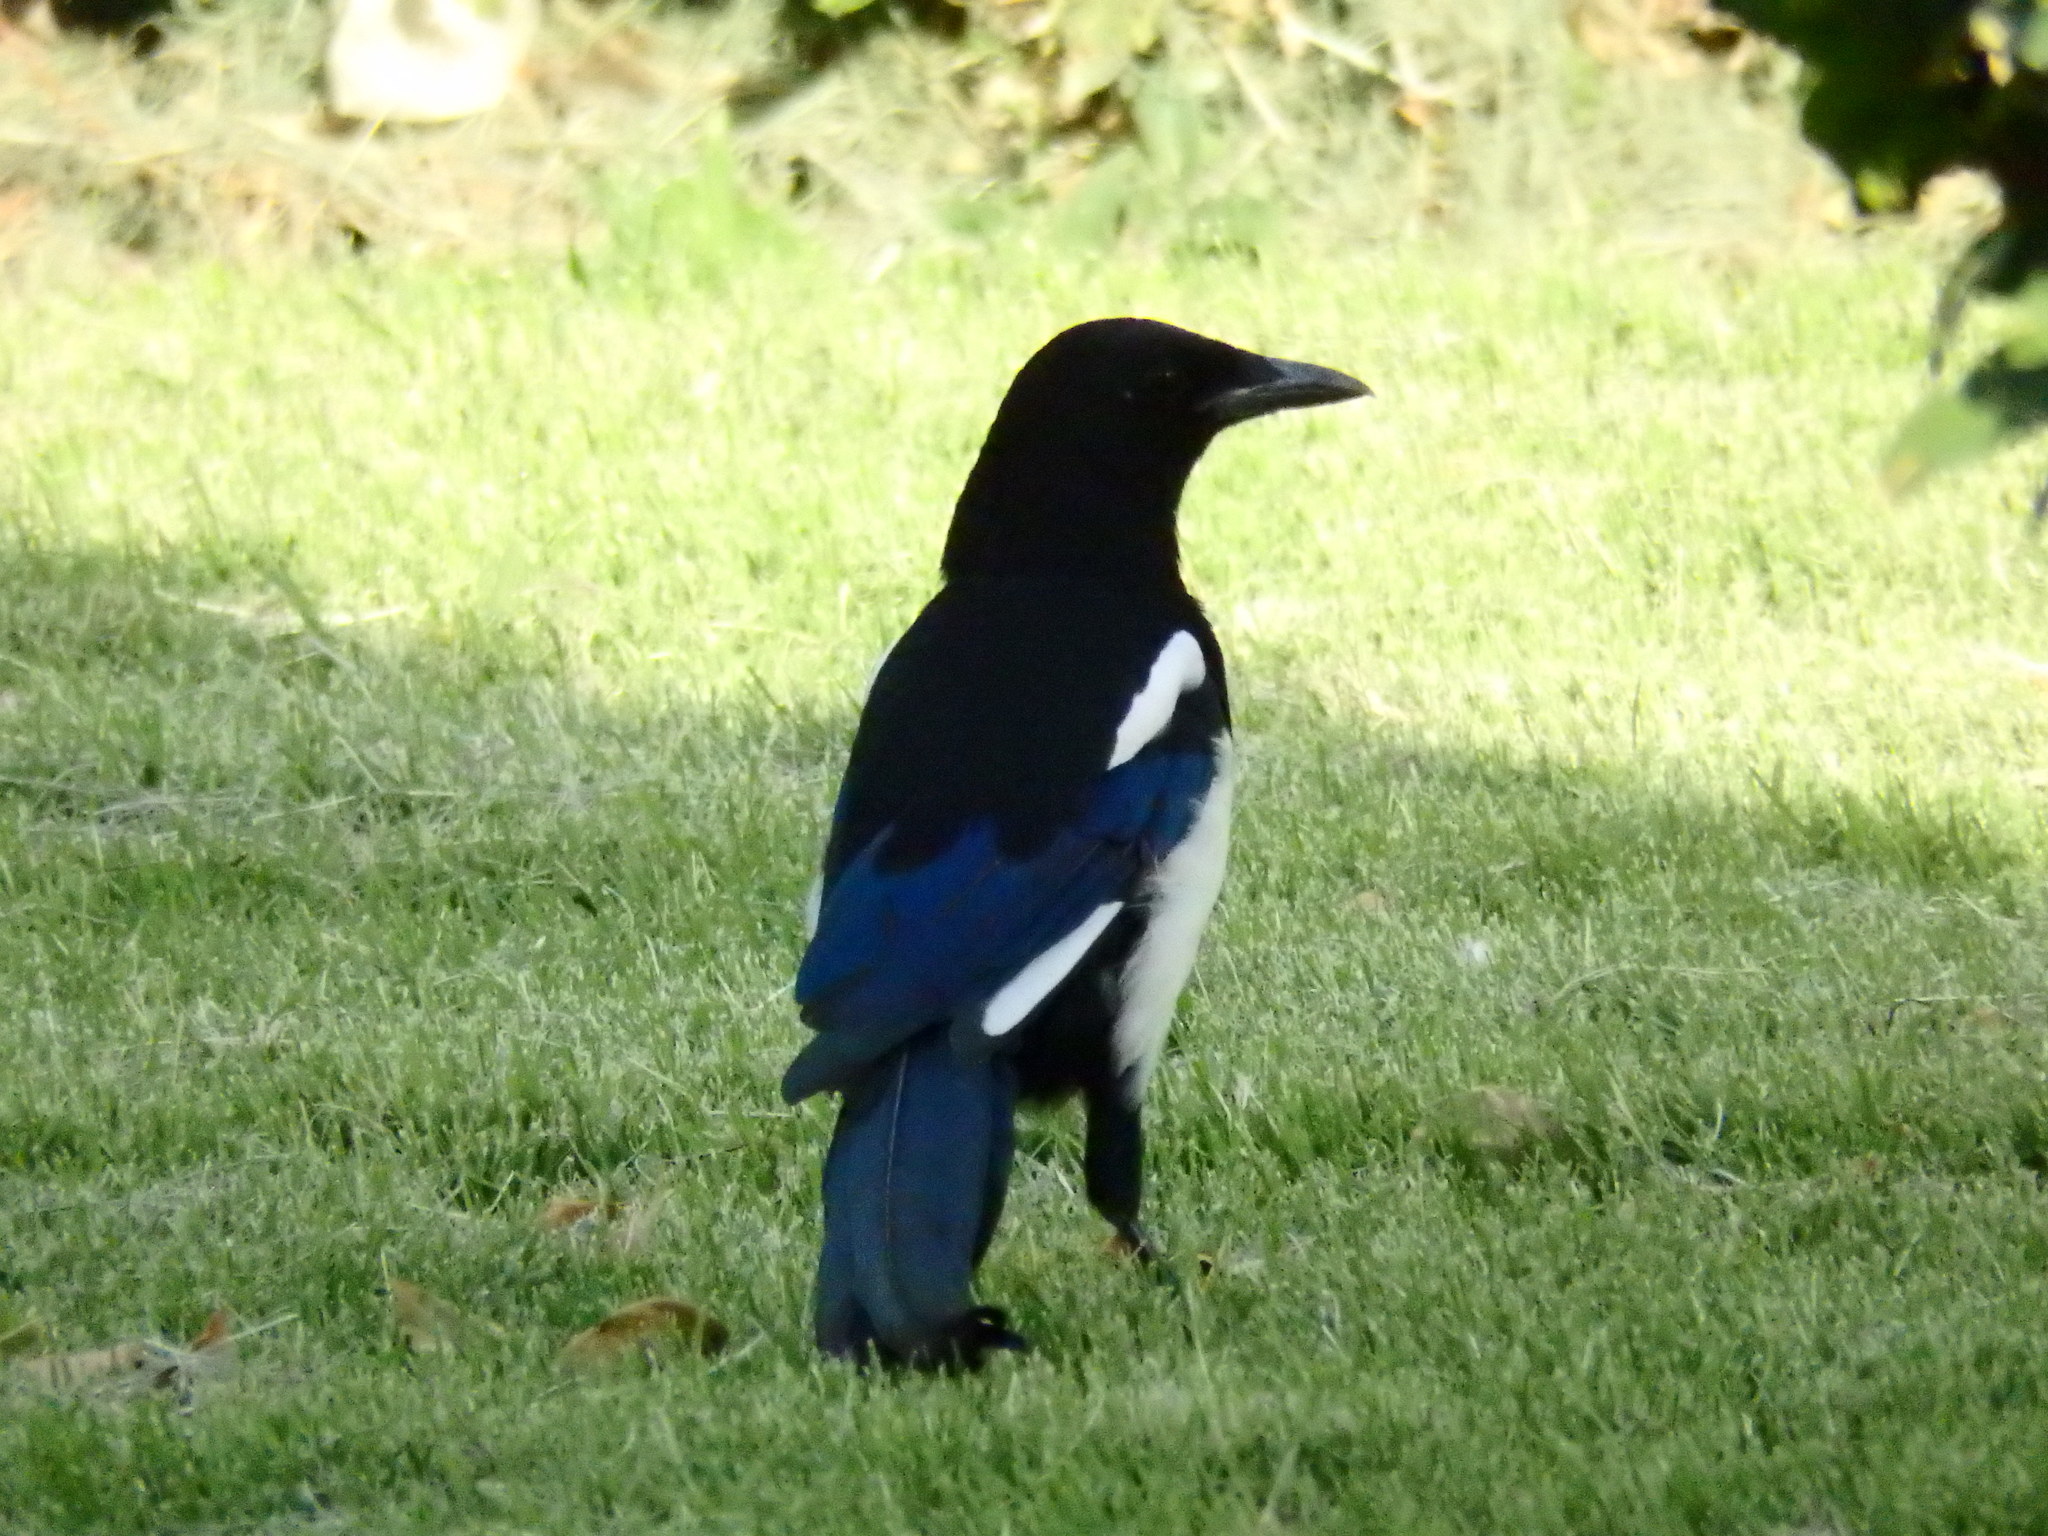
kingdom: Animalia
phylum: Chordata
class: Aves
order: Passeriformes
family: Corvidae
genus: Pica
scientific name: Pica pica
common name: Eurasian magpie
